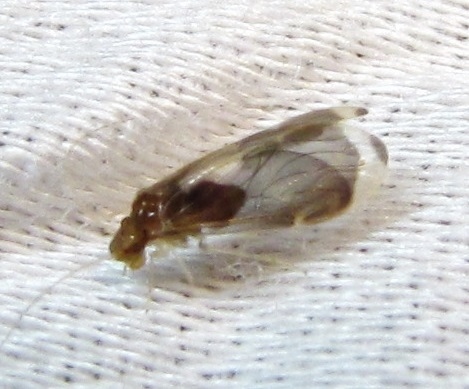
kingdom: Animalia
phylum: Arthropoda
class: Insecta
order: Psocodea
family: Amphipsocidae
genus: Polypsocus
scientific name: Polypsocus corruptus
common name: Corrupt barklouse
